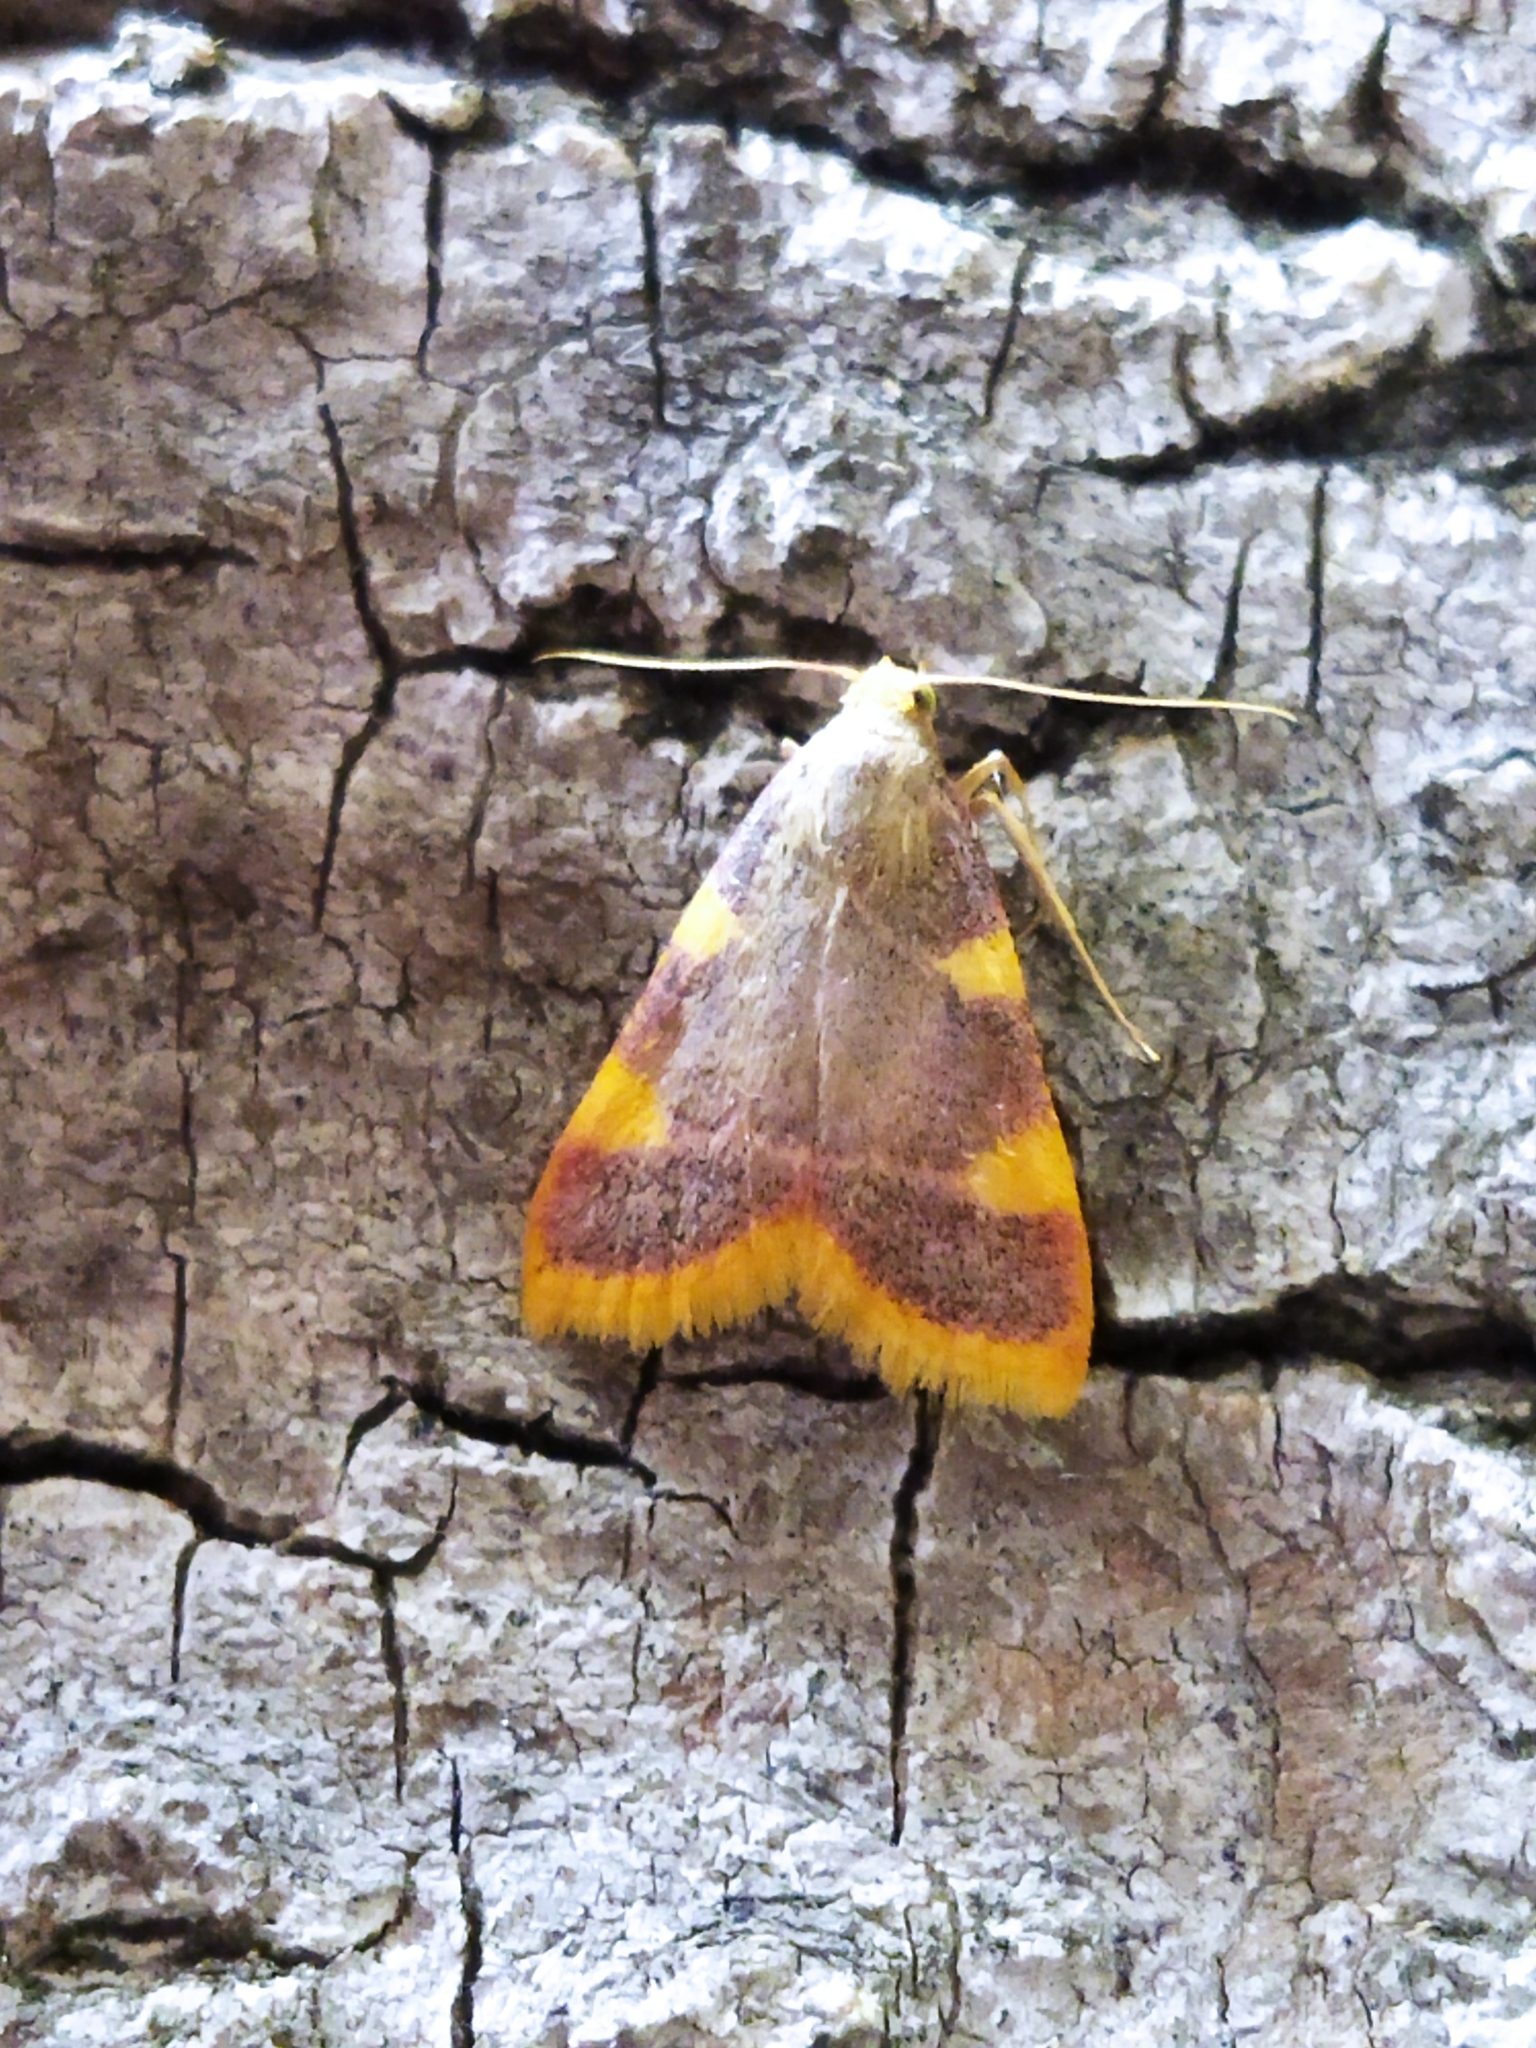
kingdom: Animalia
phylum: Arthropoda
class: Insecta
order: Lepidoptera
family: Pyralidae
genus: Hypsopygia
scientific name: Hypsopygia costalis
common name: Gold triangle
